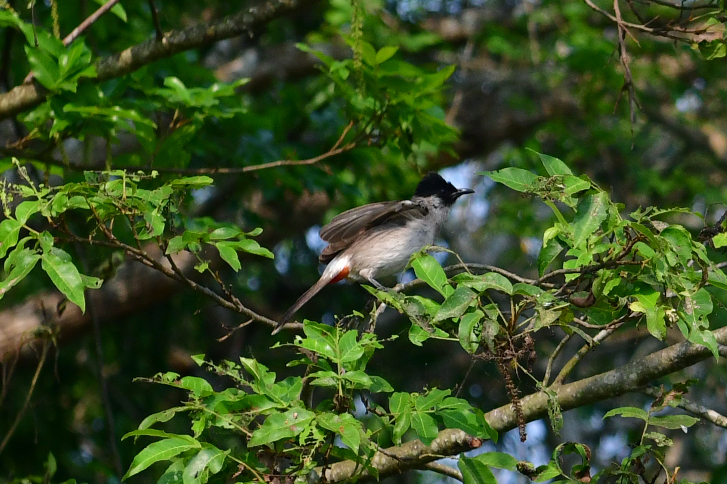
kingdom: Animalia
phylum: Chordata
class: Aves
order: Passeriformes
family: Pycnonotidae
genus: Pycnonotus
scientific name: Pycnonotus aurigaster
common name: Sooty-headed bulbul
